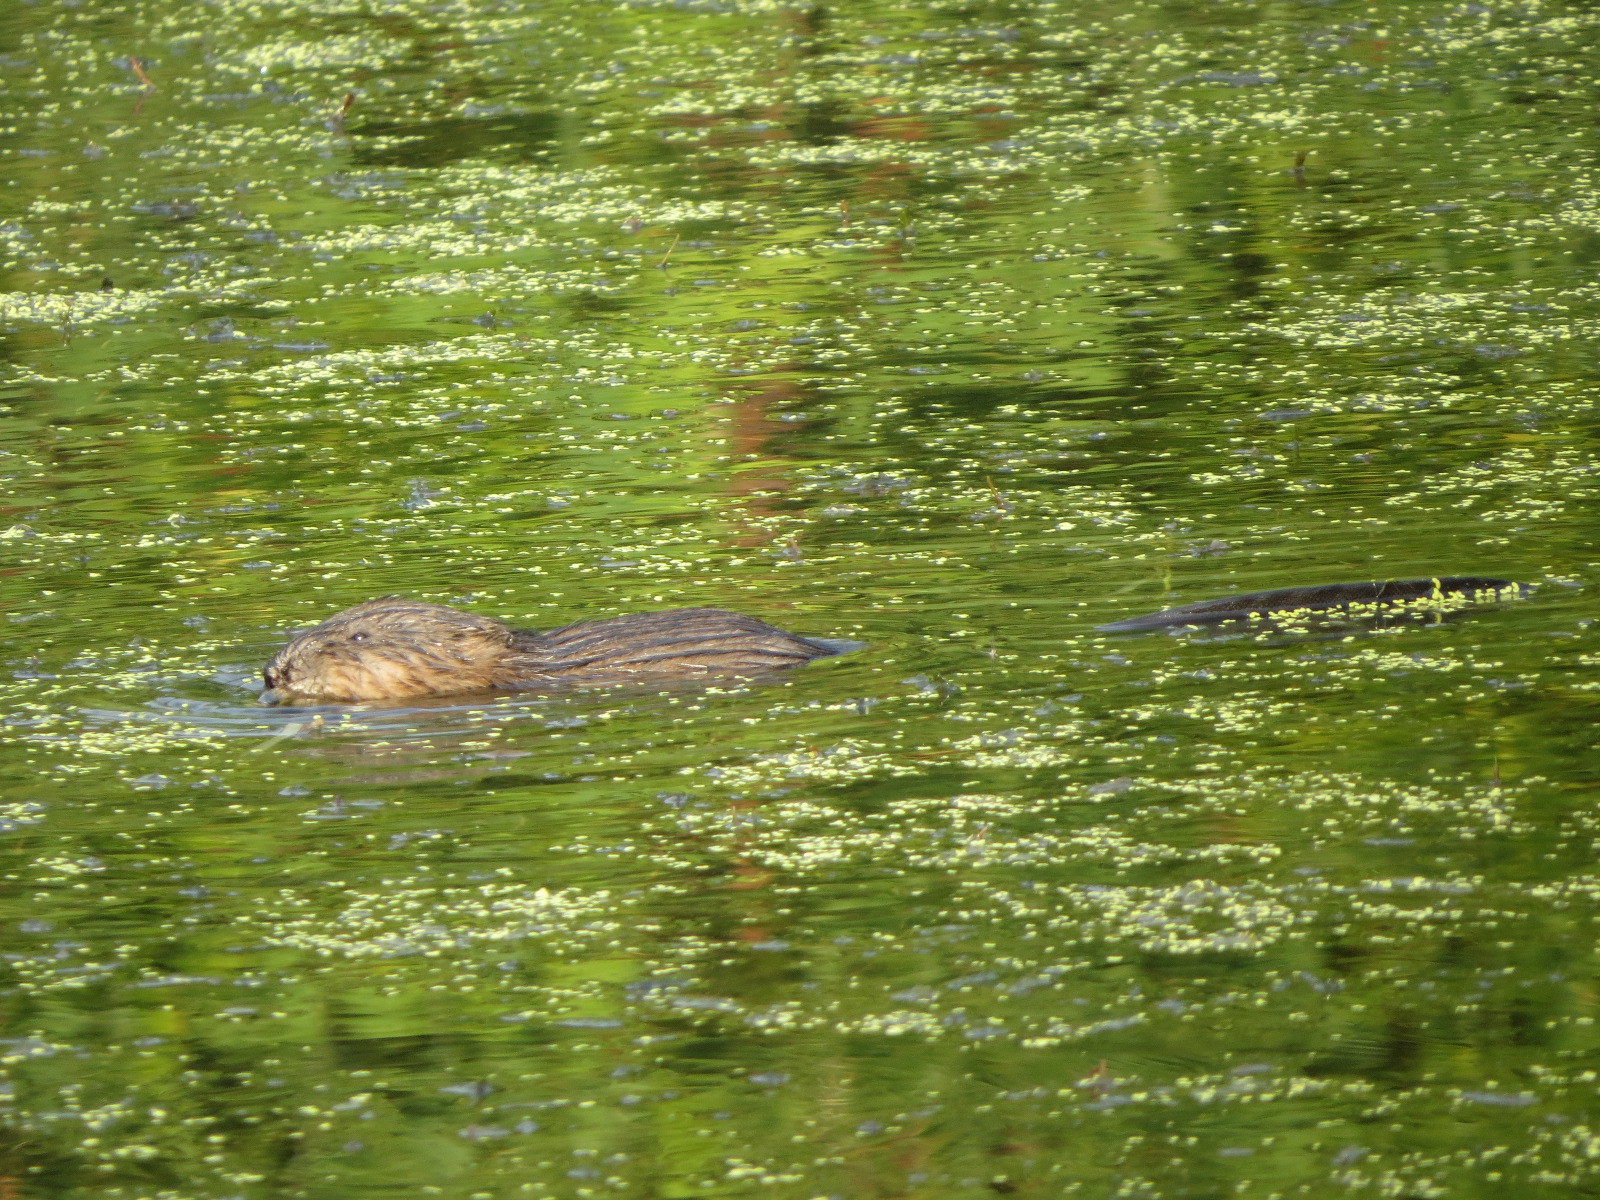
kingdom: Animalia
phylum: Chordata
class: Mammalia
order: Rodentia
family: Cricetidae
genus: Ondatra
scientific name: Ondatra zibethicus
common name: Muskrat
